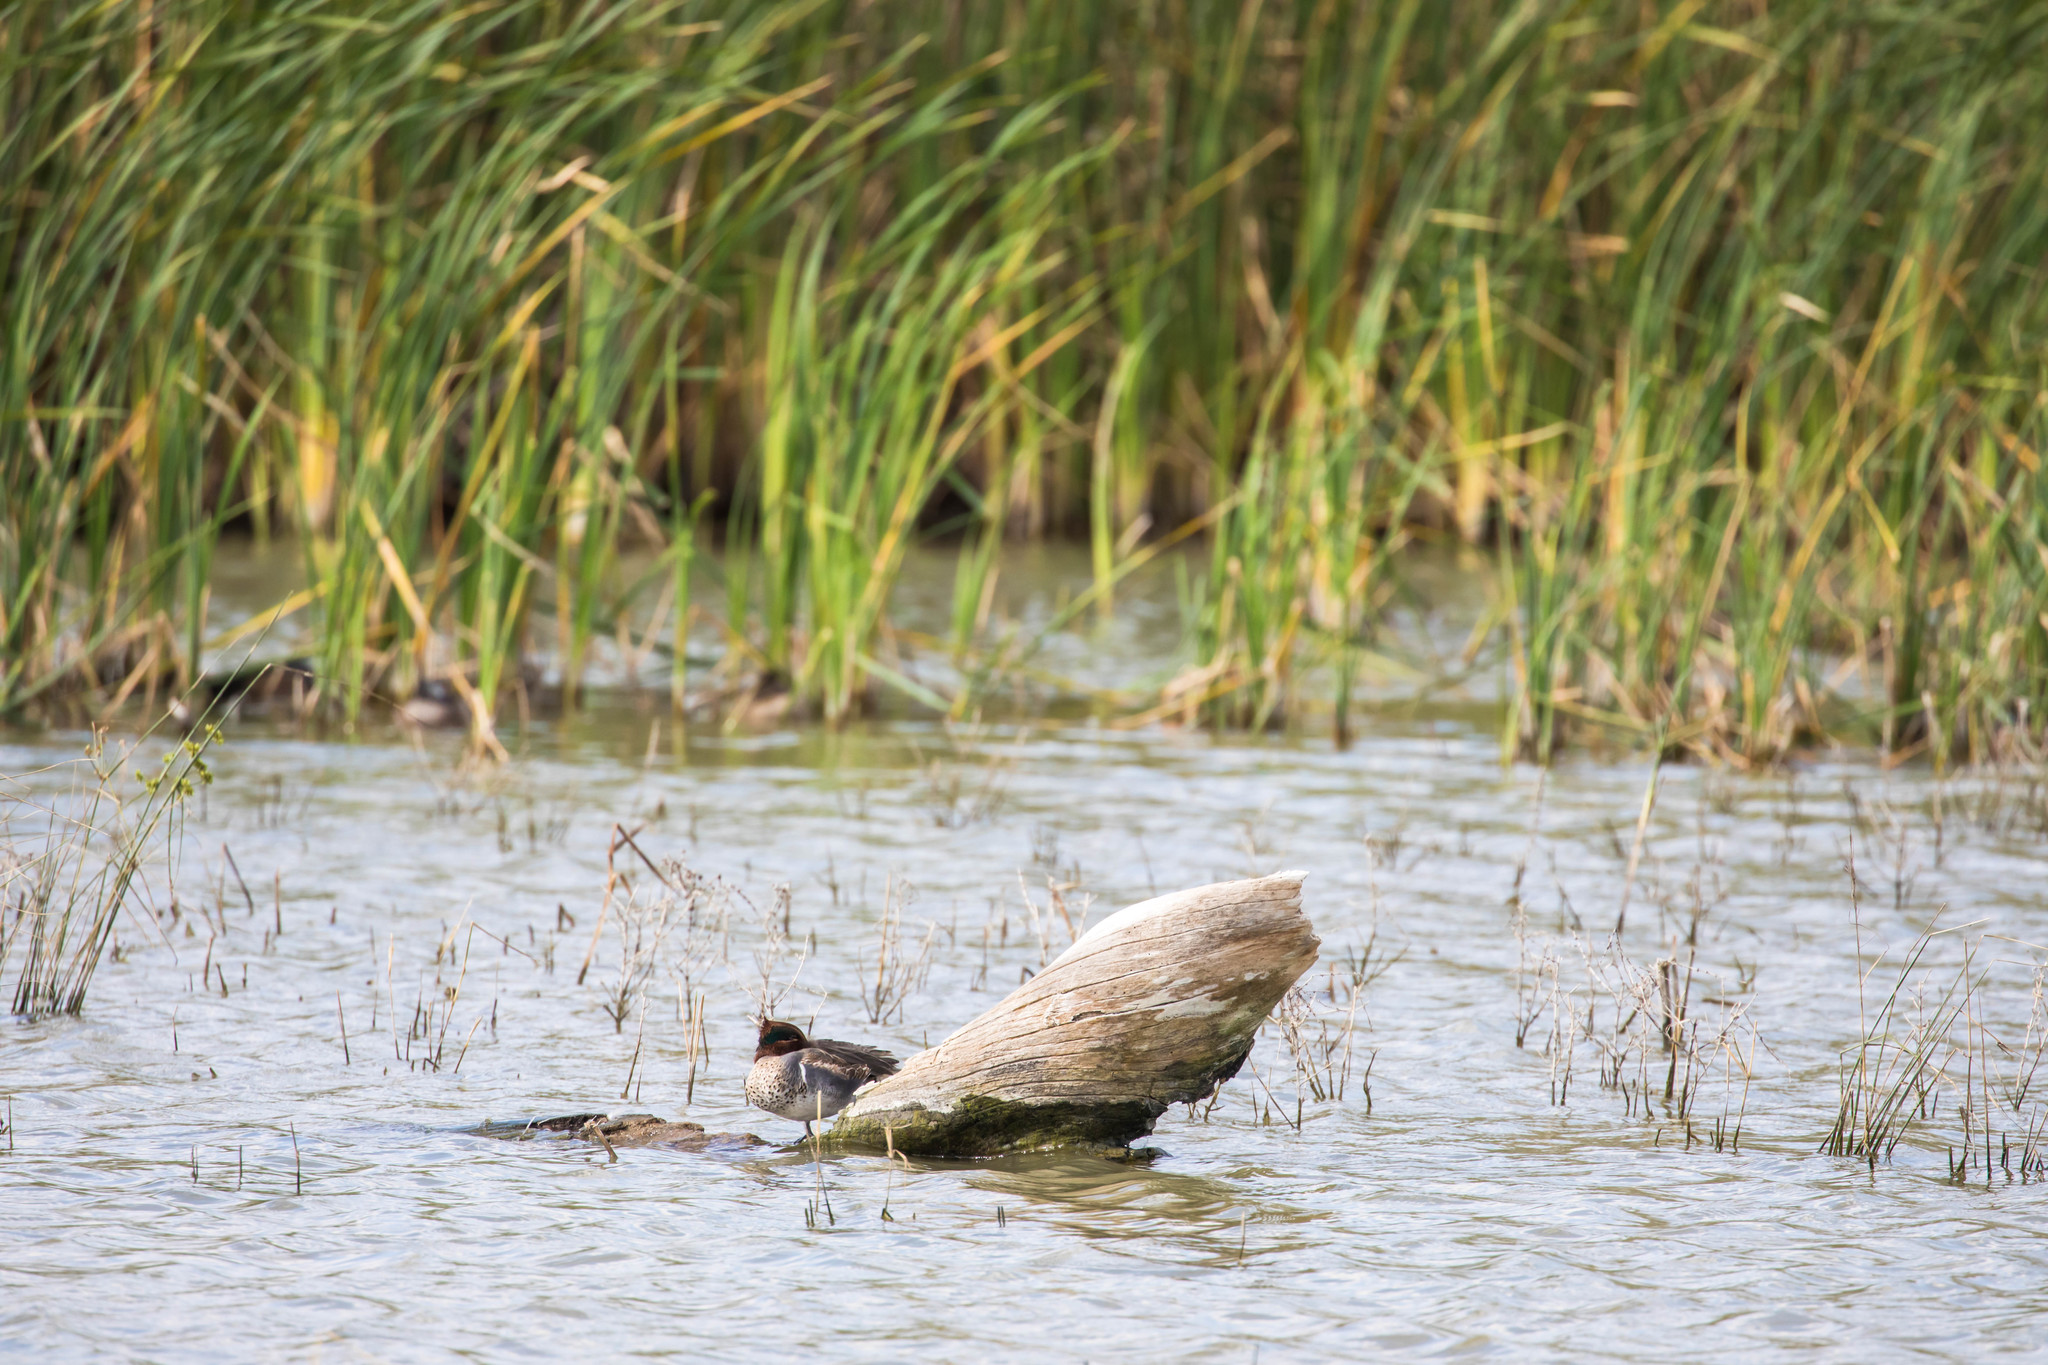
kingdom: Animalia
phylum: Chordata
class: Aves
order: Anseriformes
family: Anatidae
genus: Anas
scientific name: Anas crecca
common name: Eurasian teal
